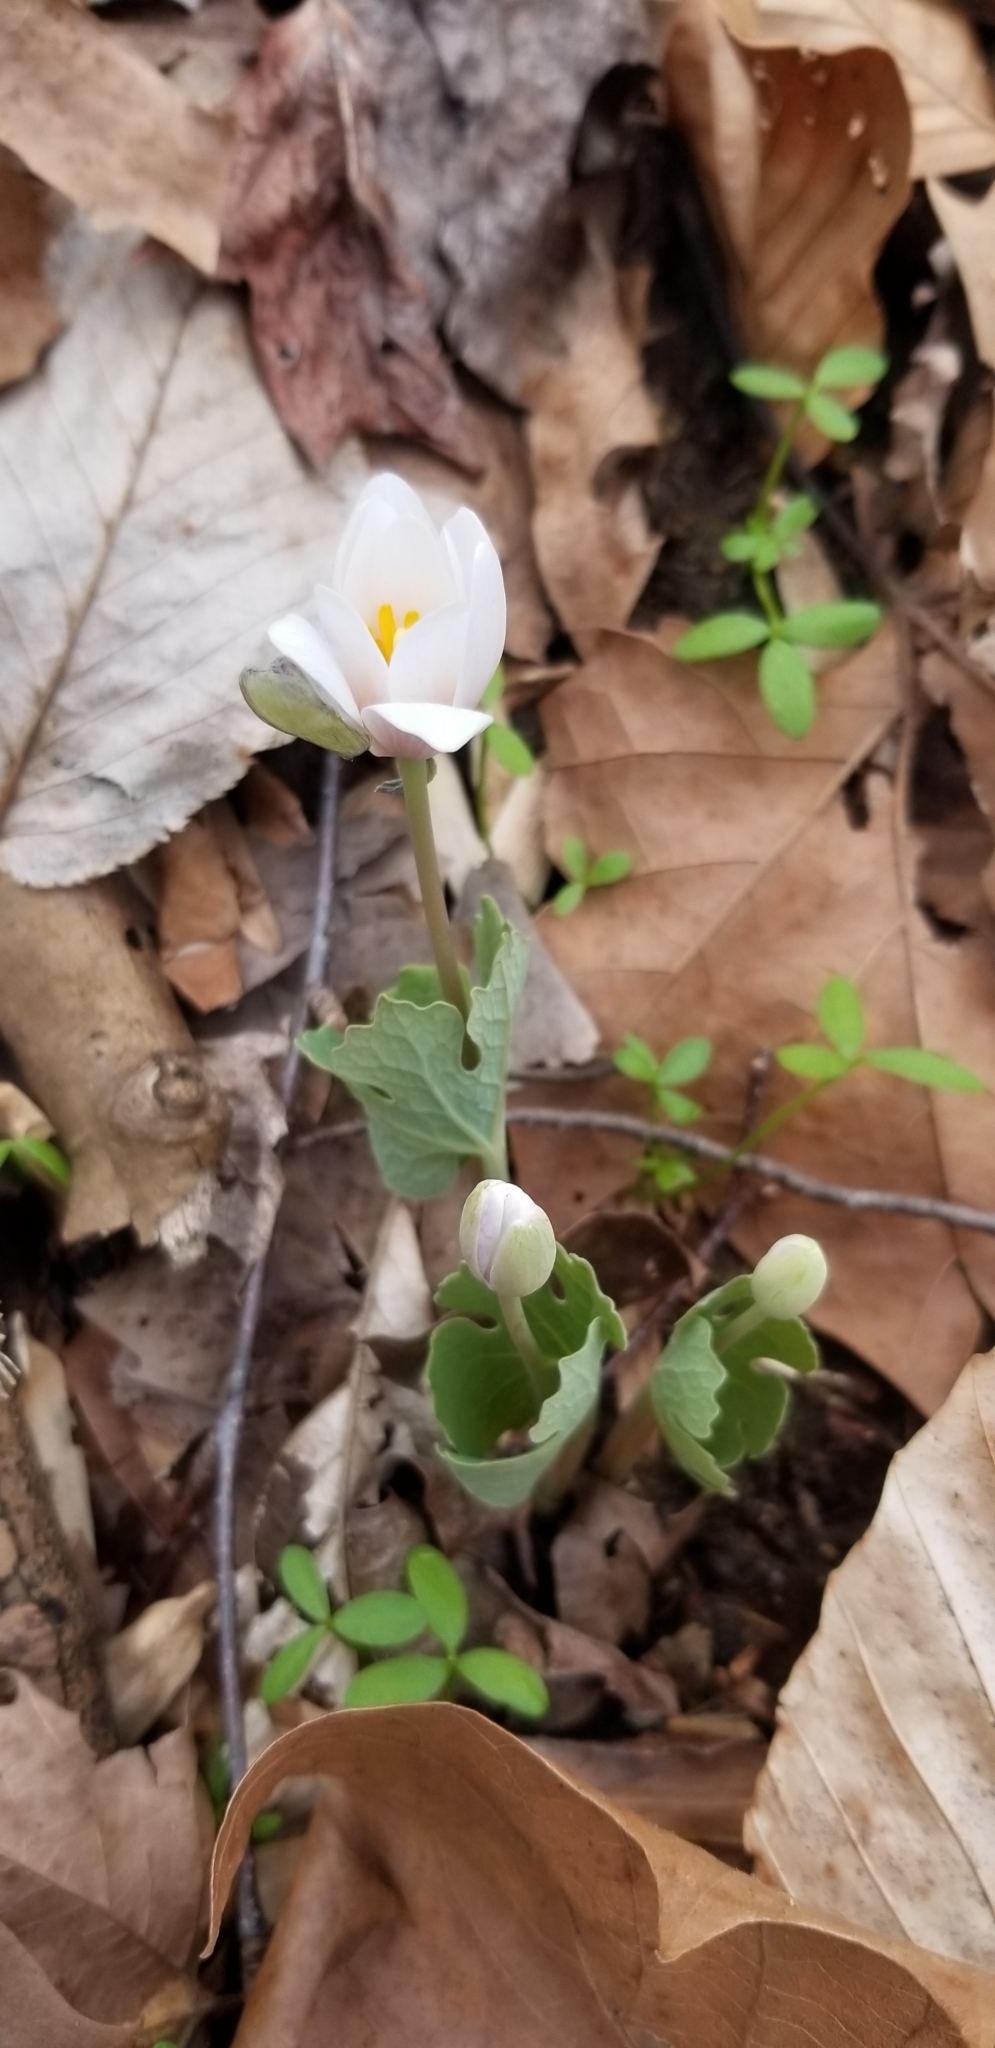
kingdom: Plantae
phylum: Tracheophyta
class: Magnoliopsida
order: Ranunculales
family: Papaveraceae
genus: Sanguinaria
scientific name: Sanguinaria canadensis
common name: Bloodroot
